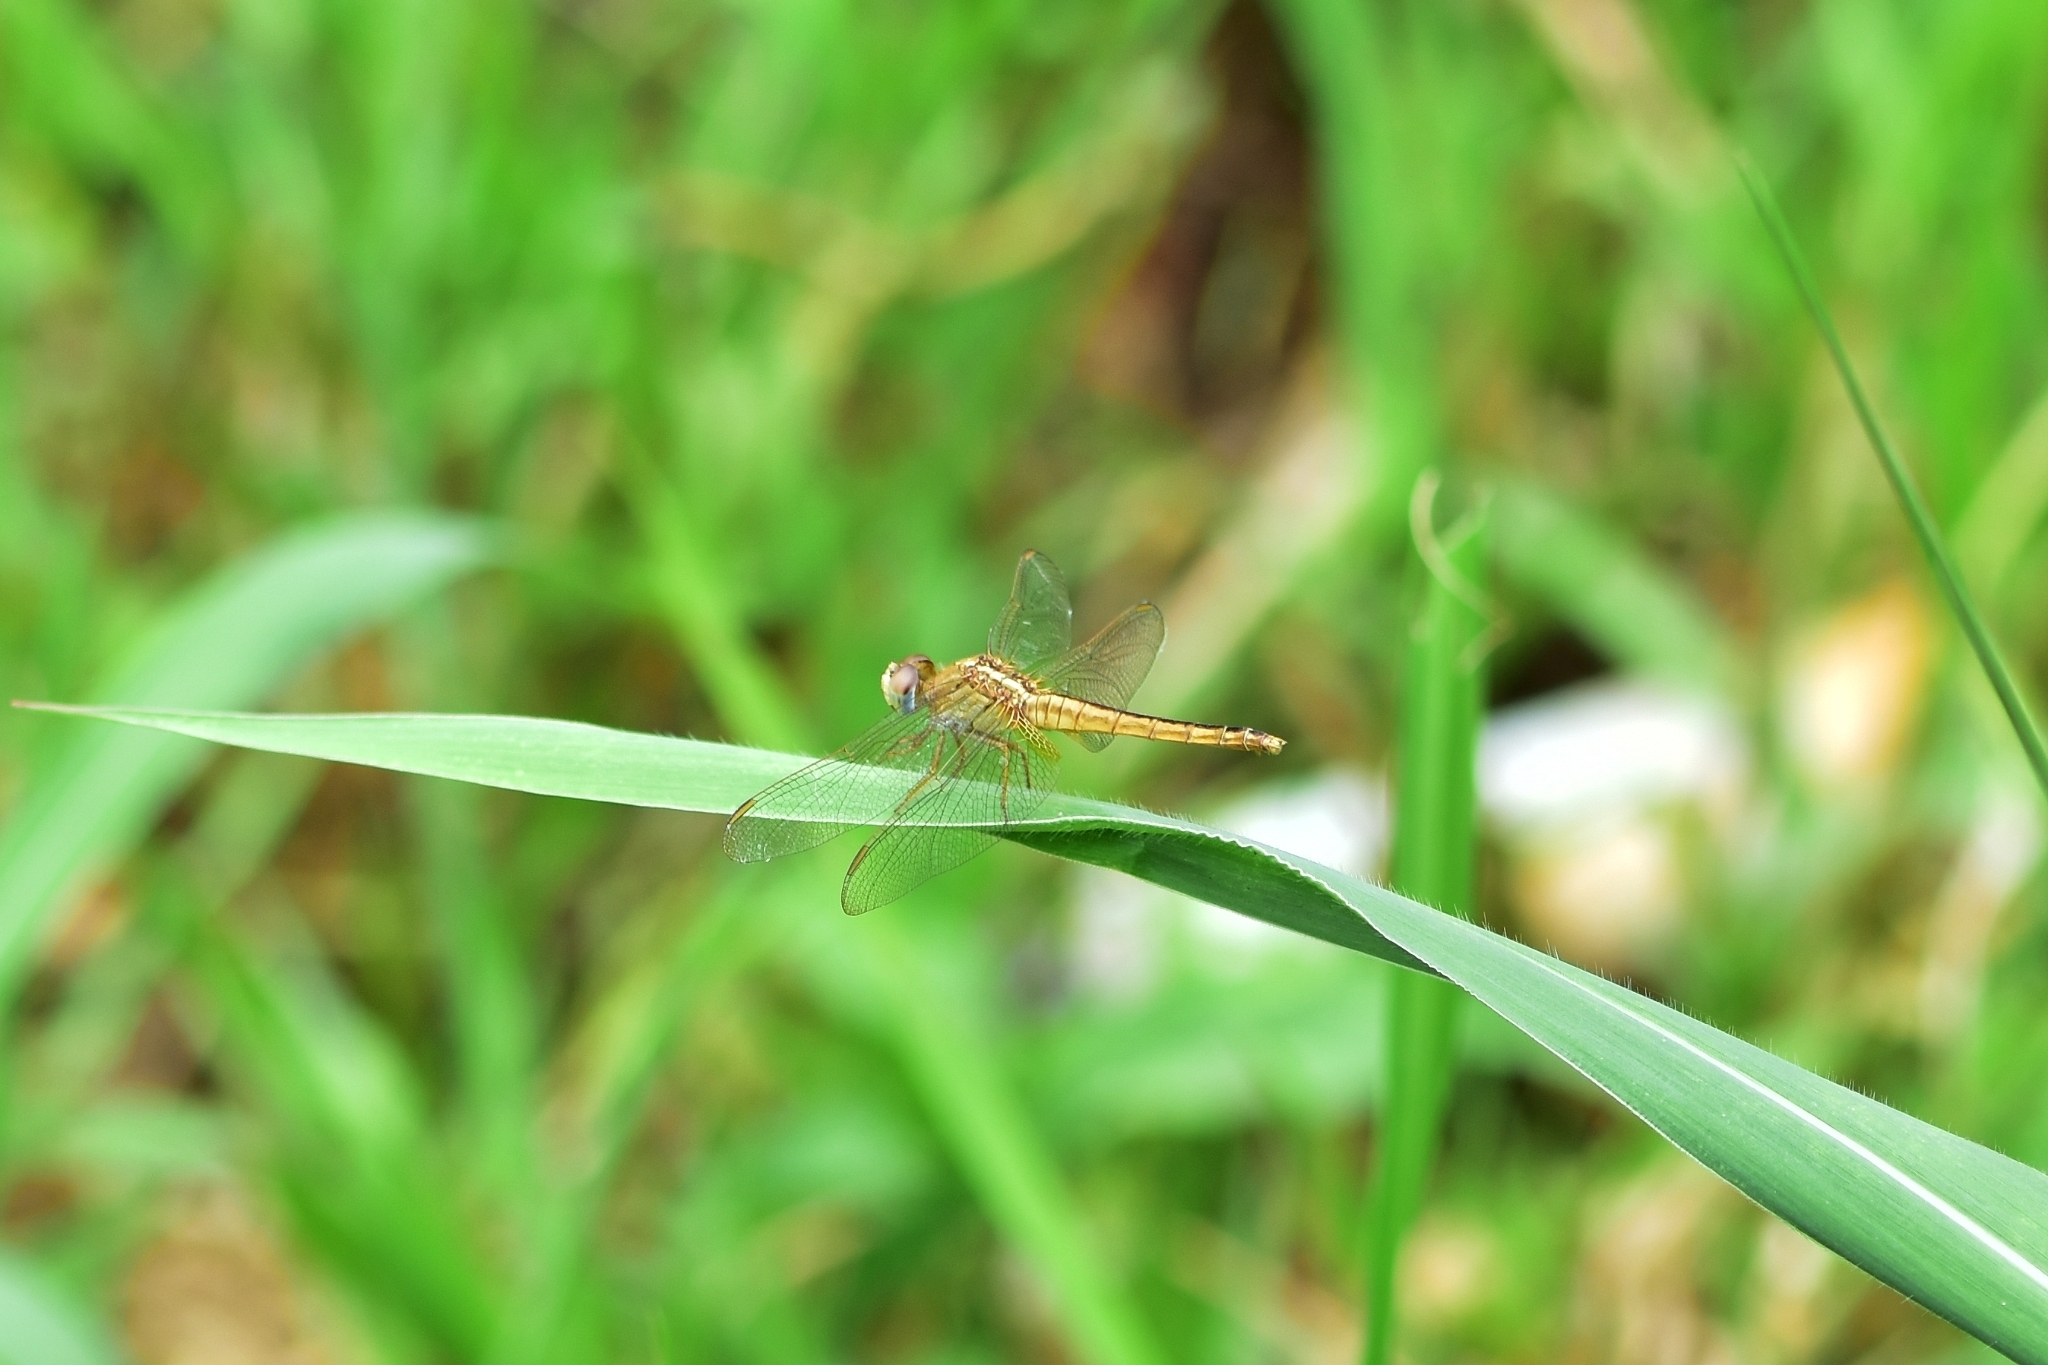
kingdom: Animalia
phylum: Arthropoda
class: Insecta
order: Odonata
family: Libellulidae
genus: Crocothemis
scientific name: Crocothemis servilia
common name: Scarlet skimmer
